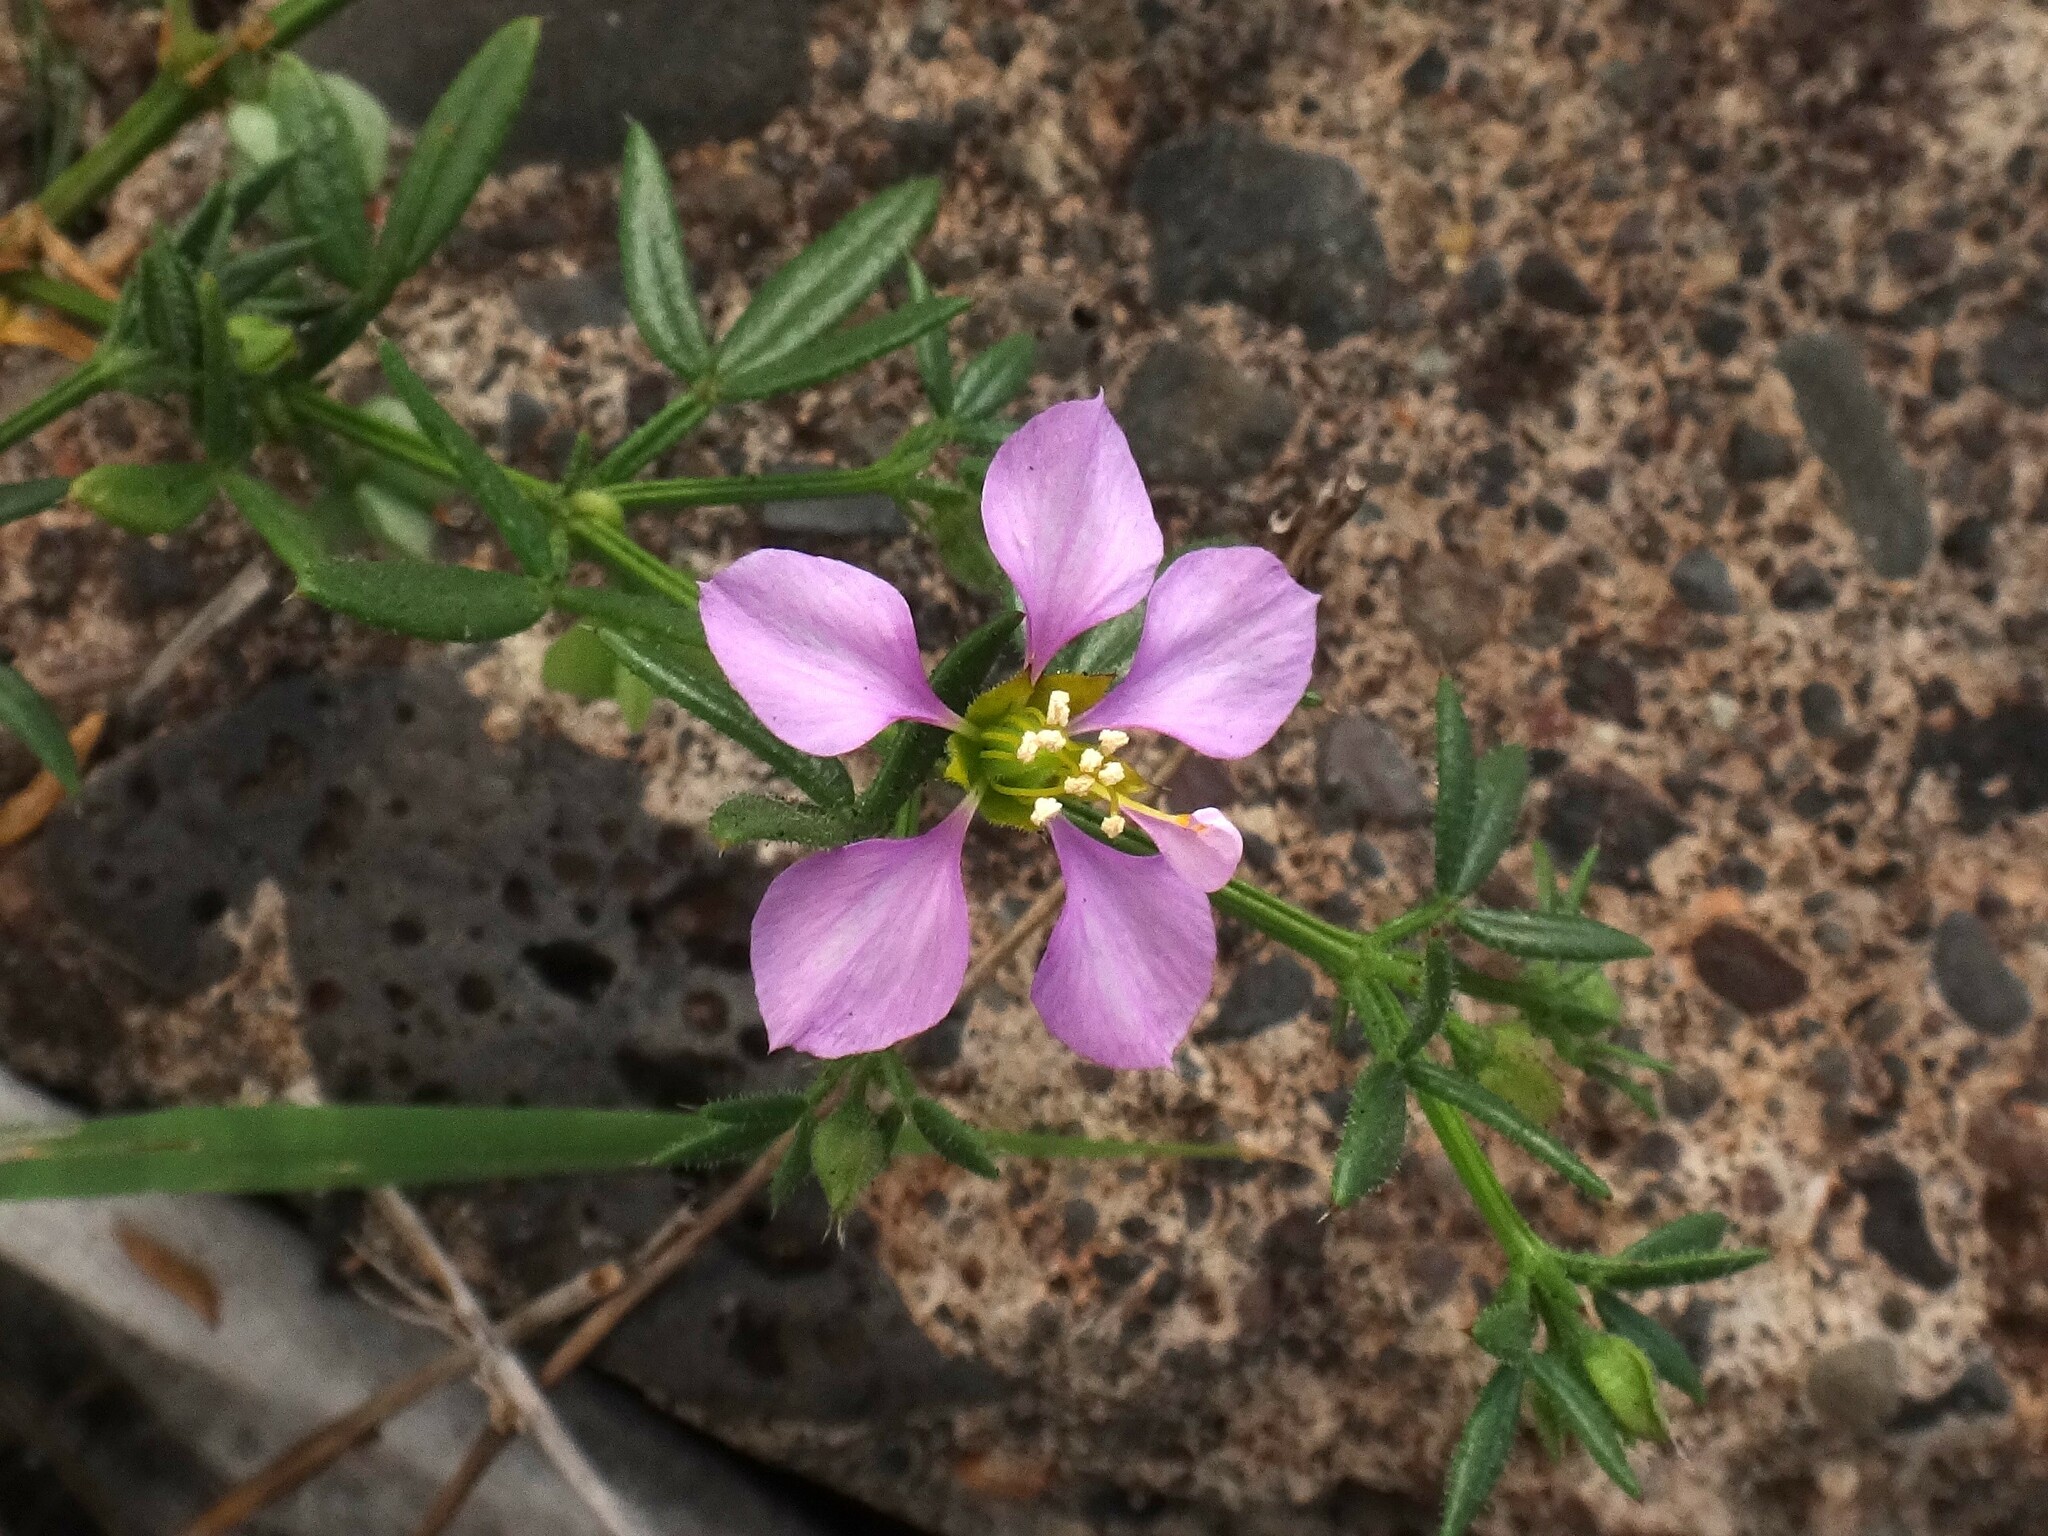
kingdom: Plantae
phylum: Tracheophyta
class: Magnoliopsida
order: Zygophyllales
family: Zygophyllaceae
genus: Fagonia
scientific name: Fagonia cretica
